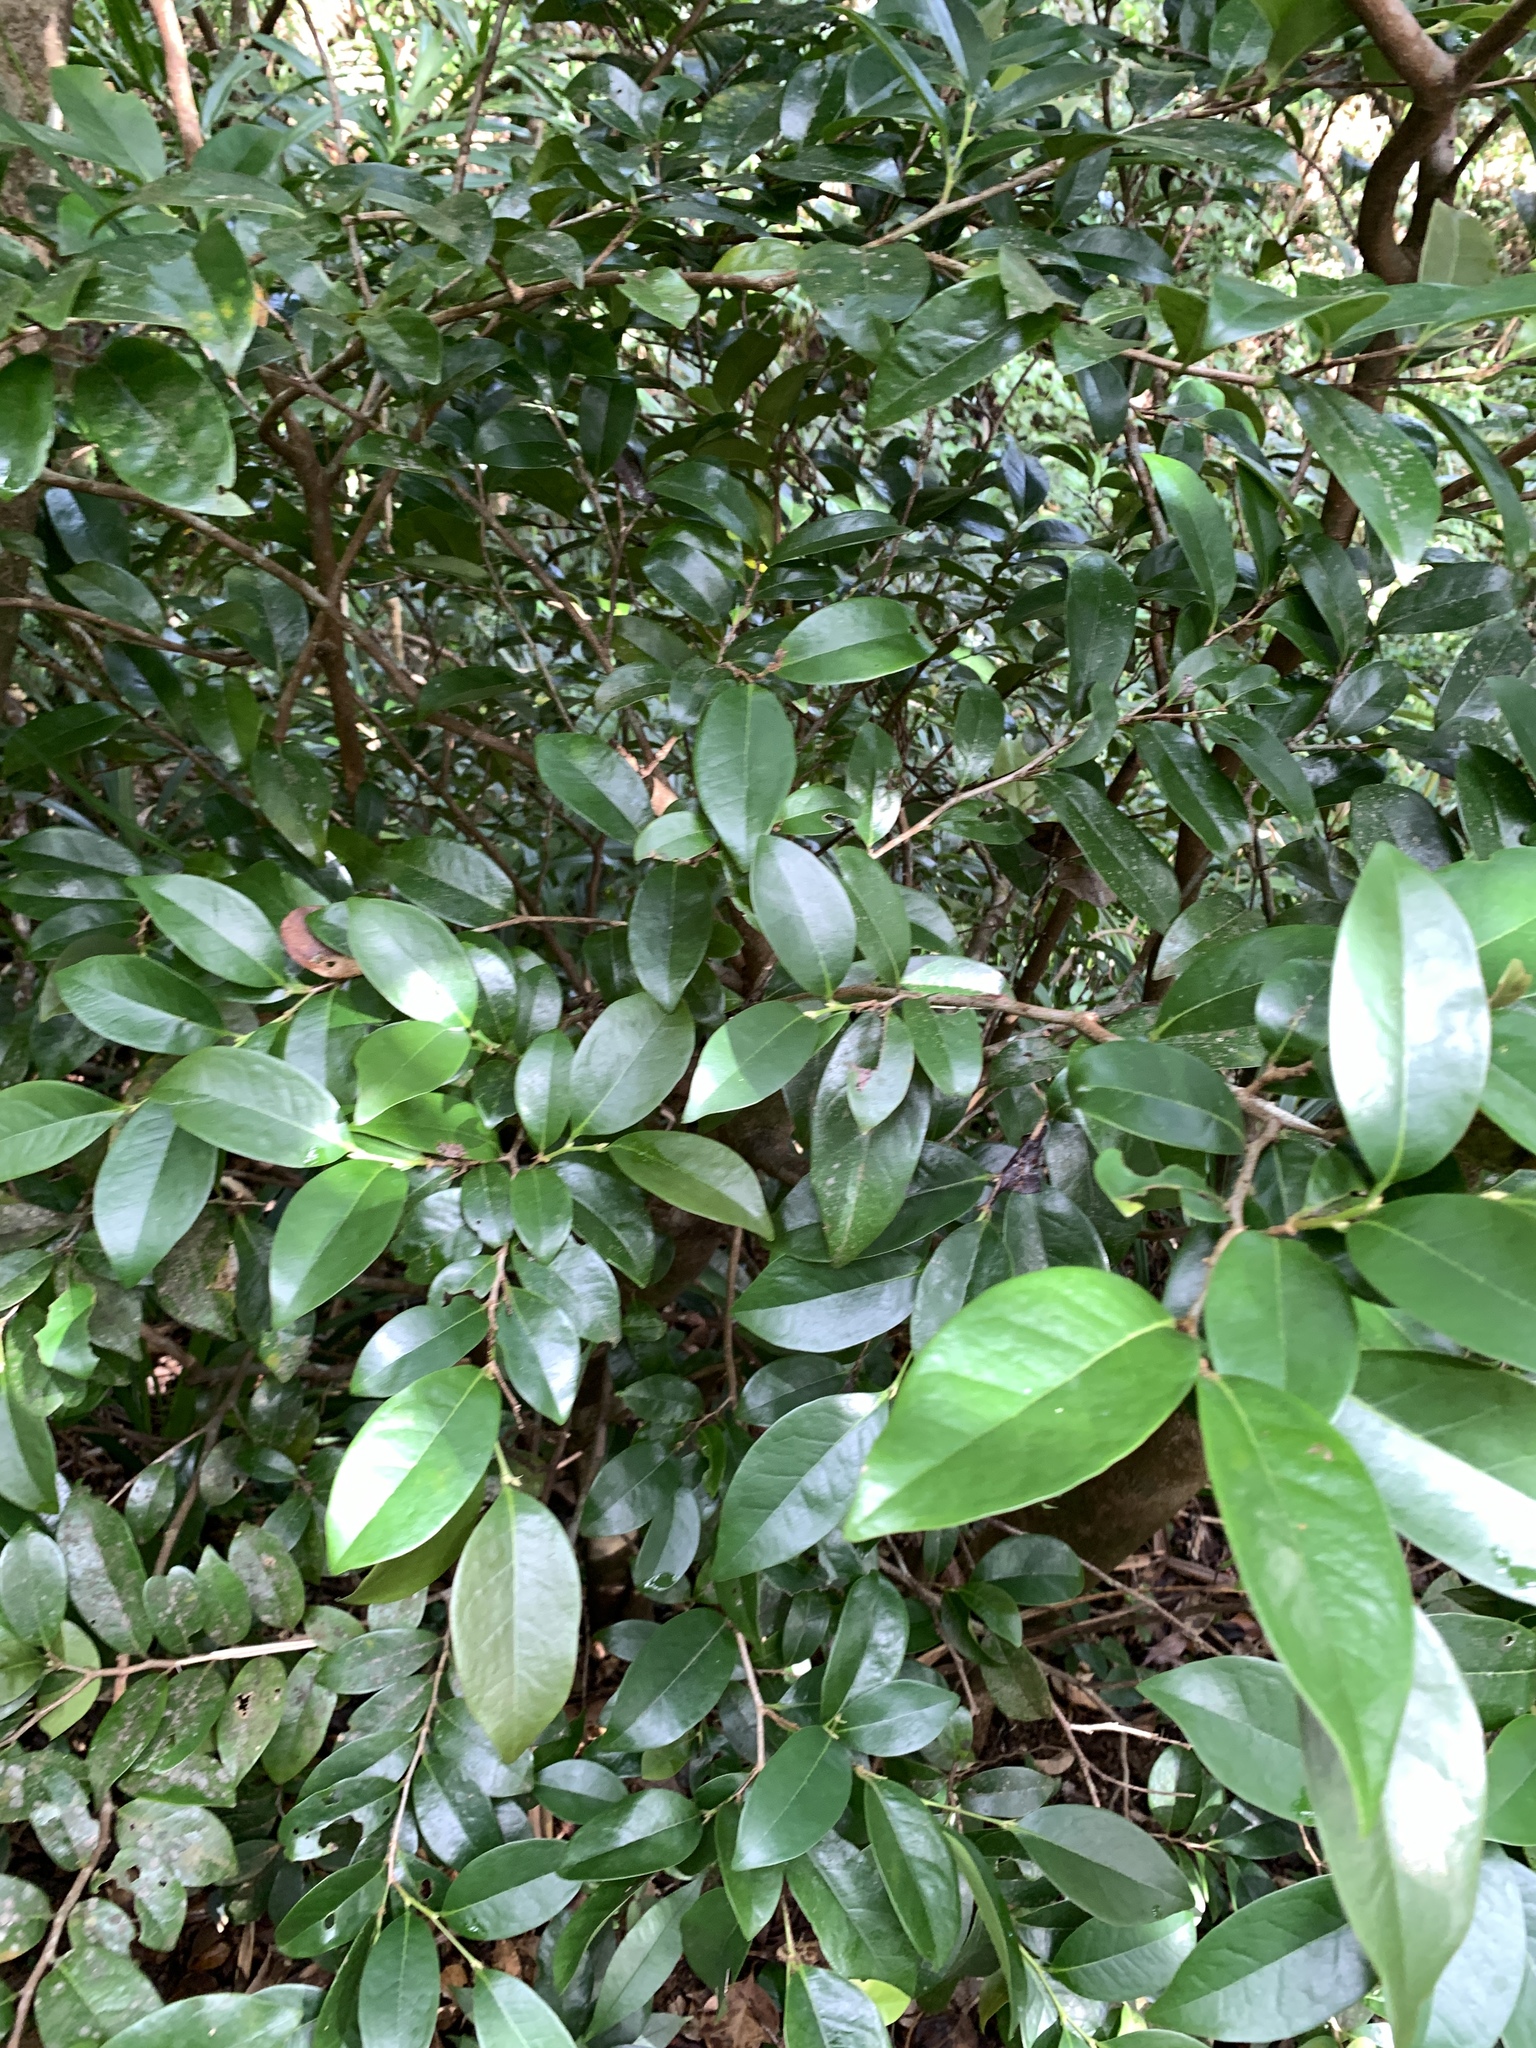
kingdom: Plantae
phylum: Tracheophyta
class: Magnoliopsida
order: Saxifragales
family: Hamamelidaceae
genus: Distylium
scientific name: Distylium racemosum
